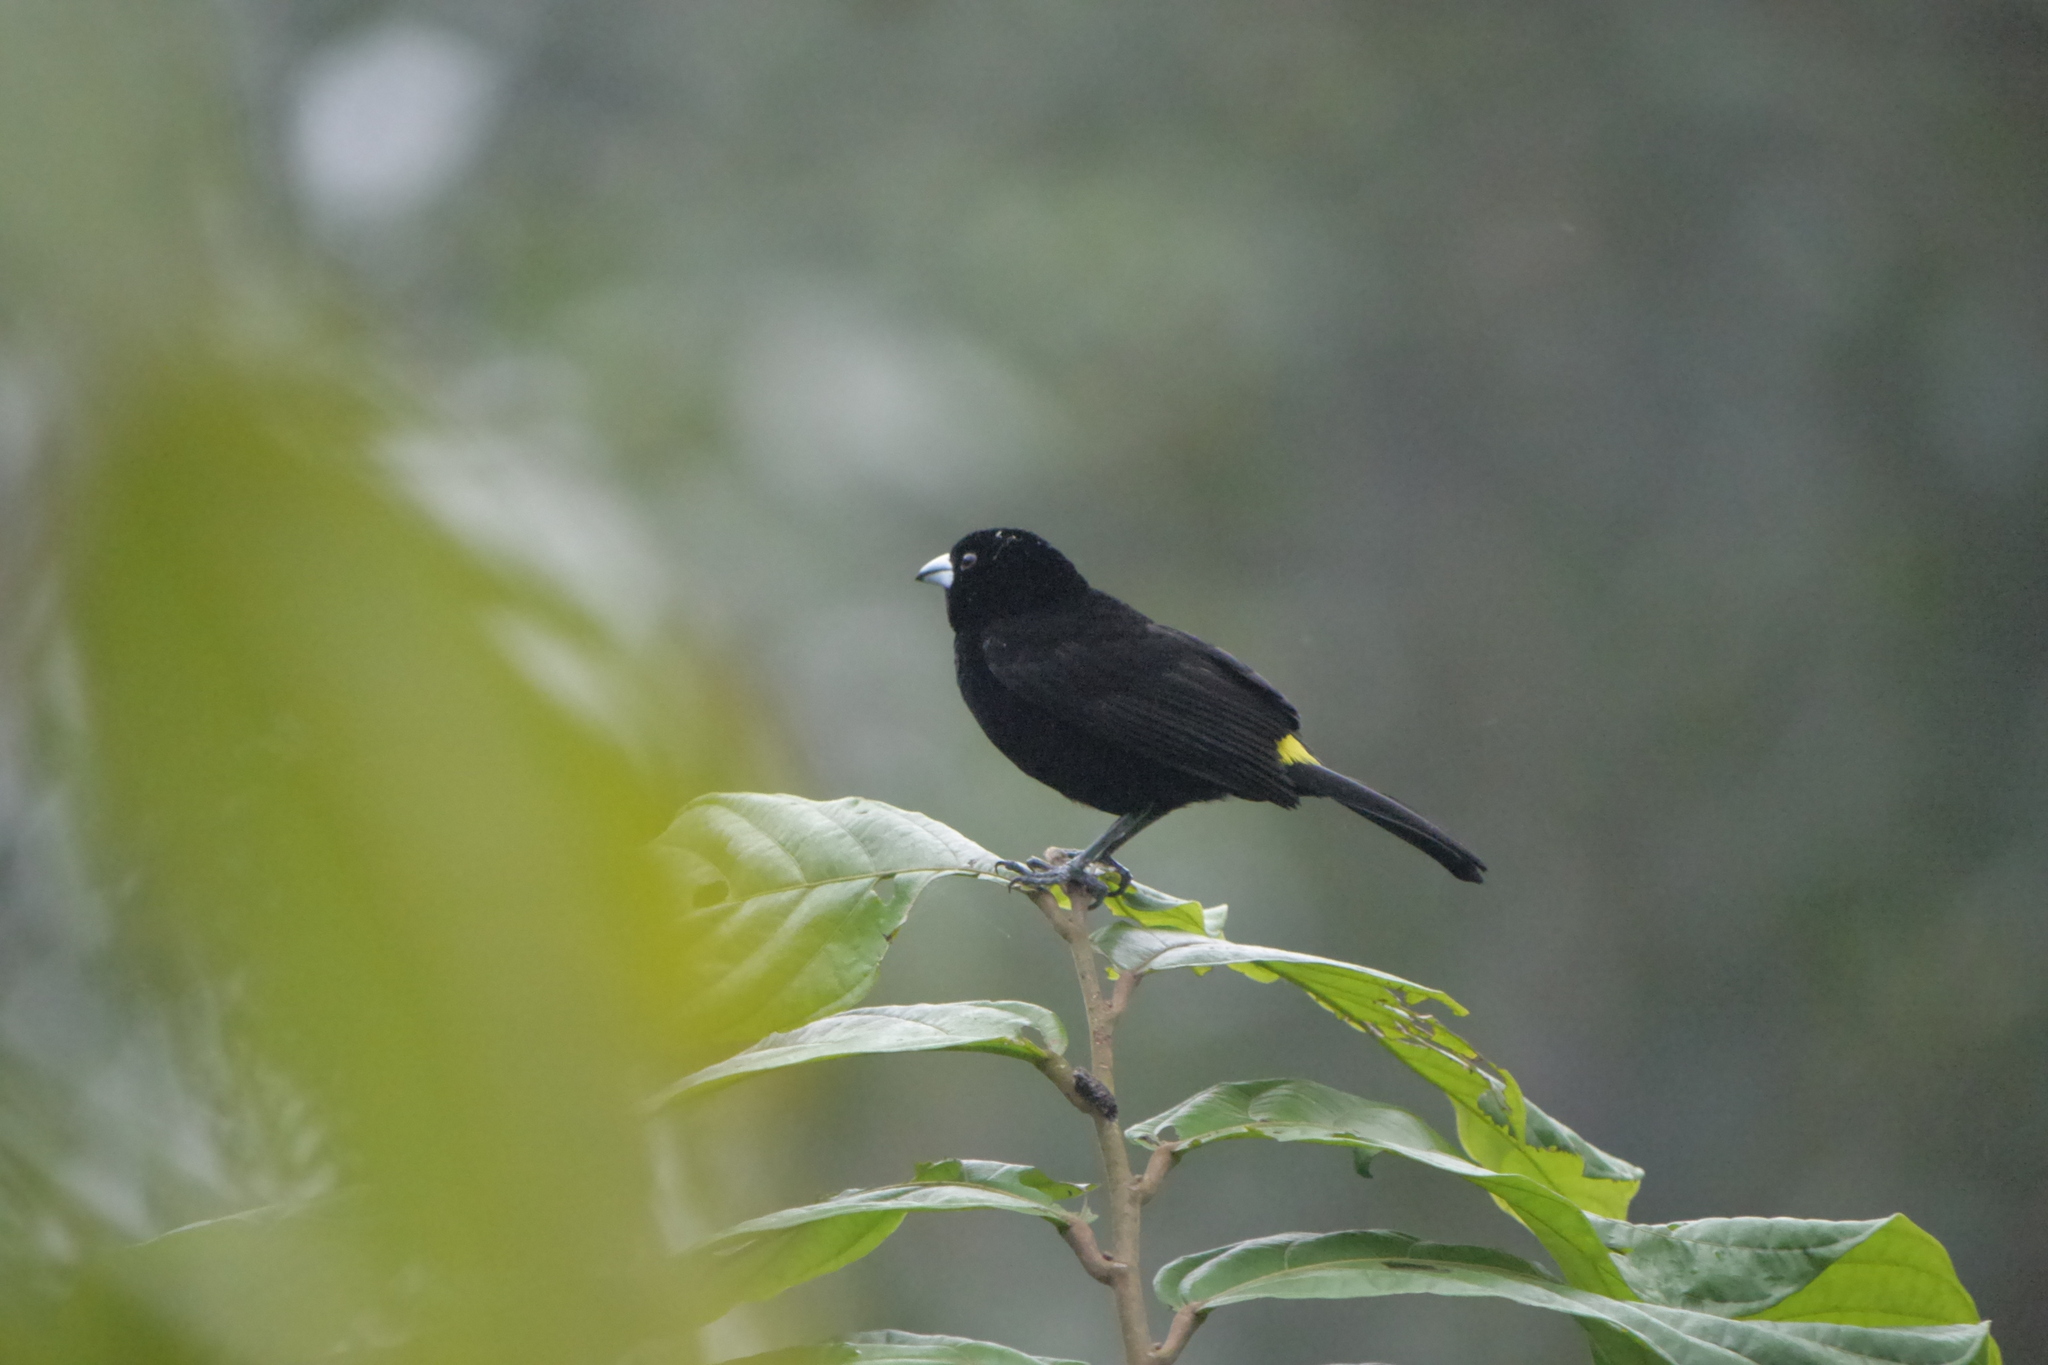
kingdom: Animalia
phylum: Chordata
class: Aves
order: Passeriformes
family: Thraupidae
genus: Ramphocelus
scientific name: Ramphocelus flammigerus
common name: Flame-rumped tanager
